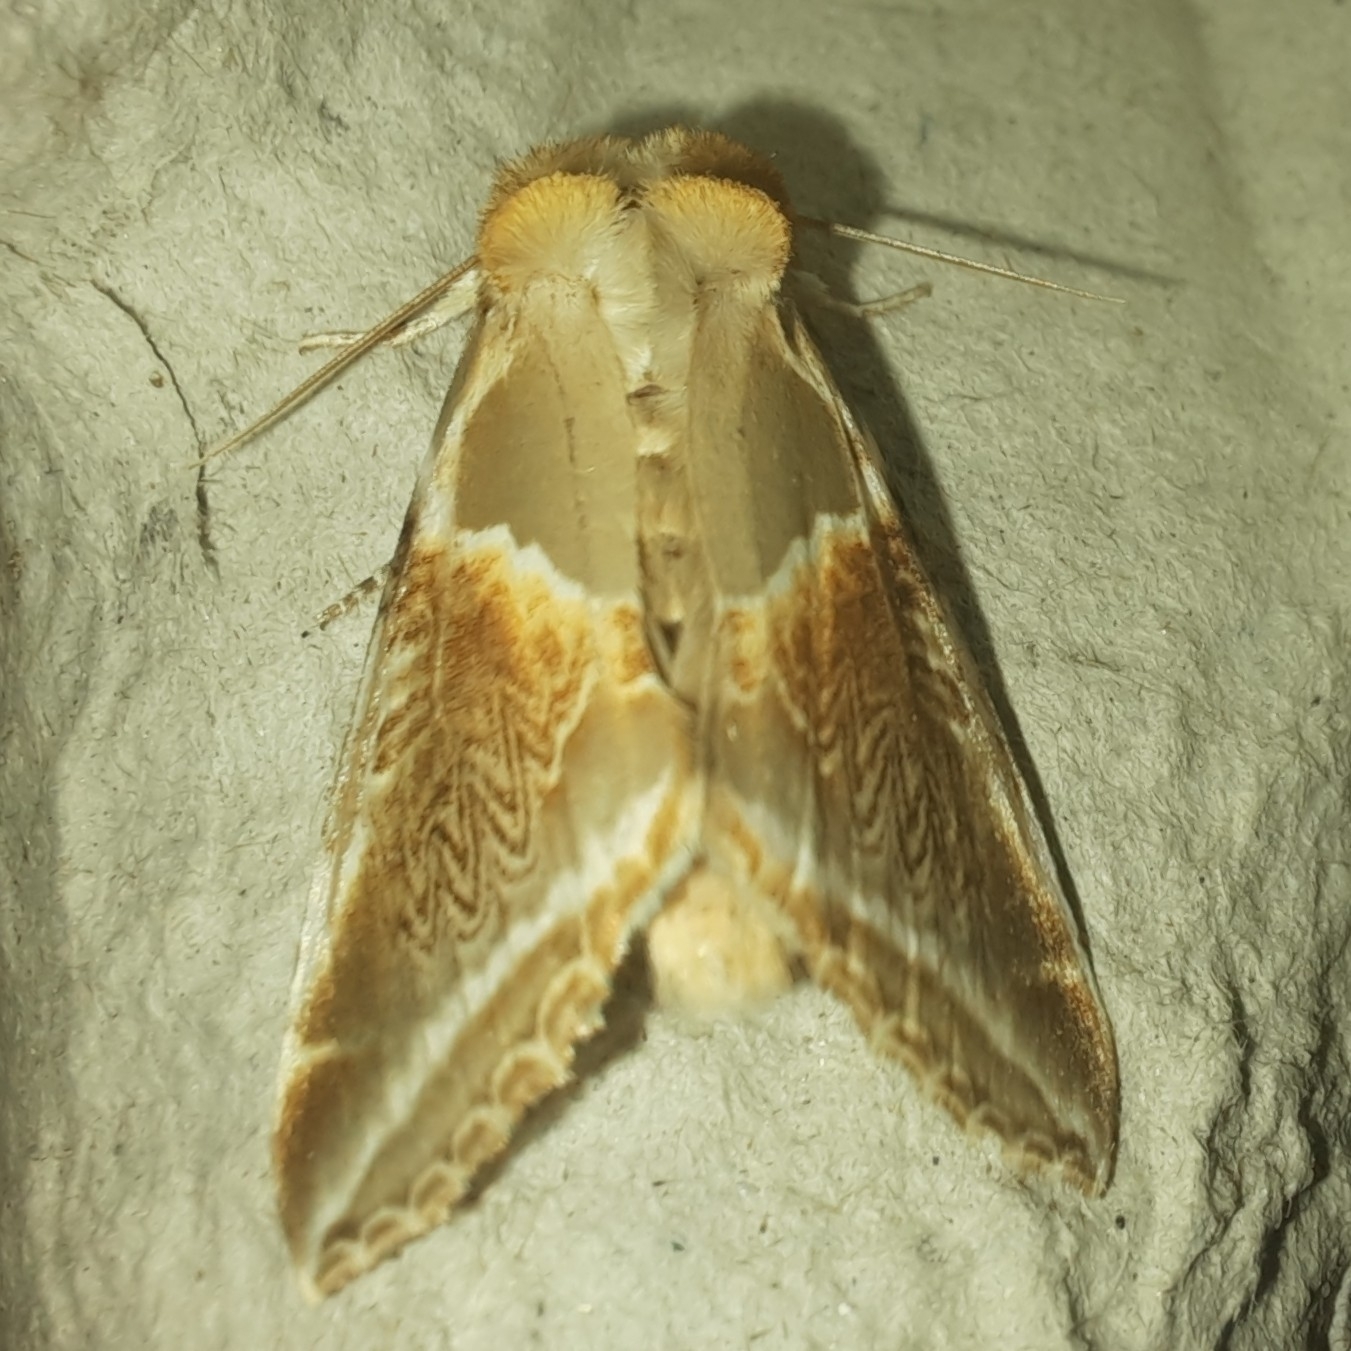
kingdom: Animalia
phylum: Arthropoda
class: Insecta
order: Lepidoptera
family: Drepanidae
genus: Habrosyne
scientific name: Habrosyne pyritoides
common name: Buff arches
